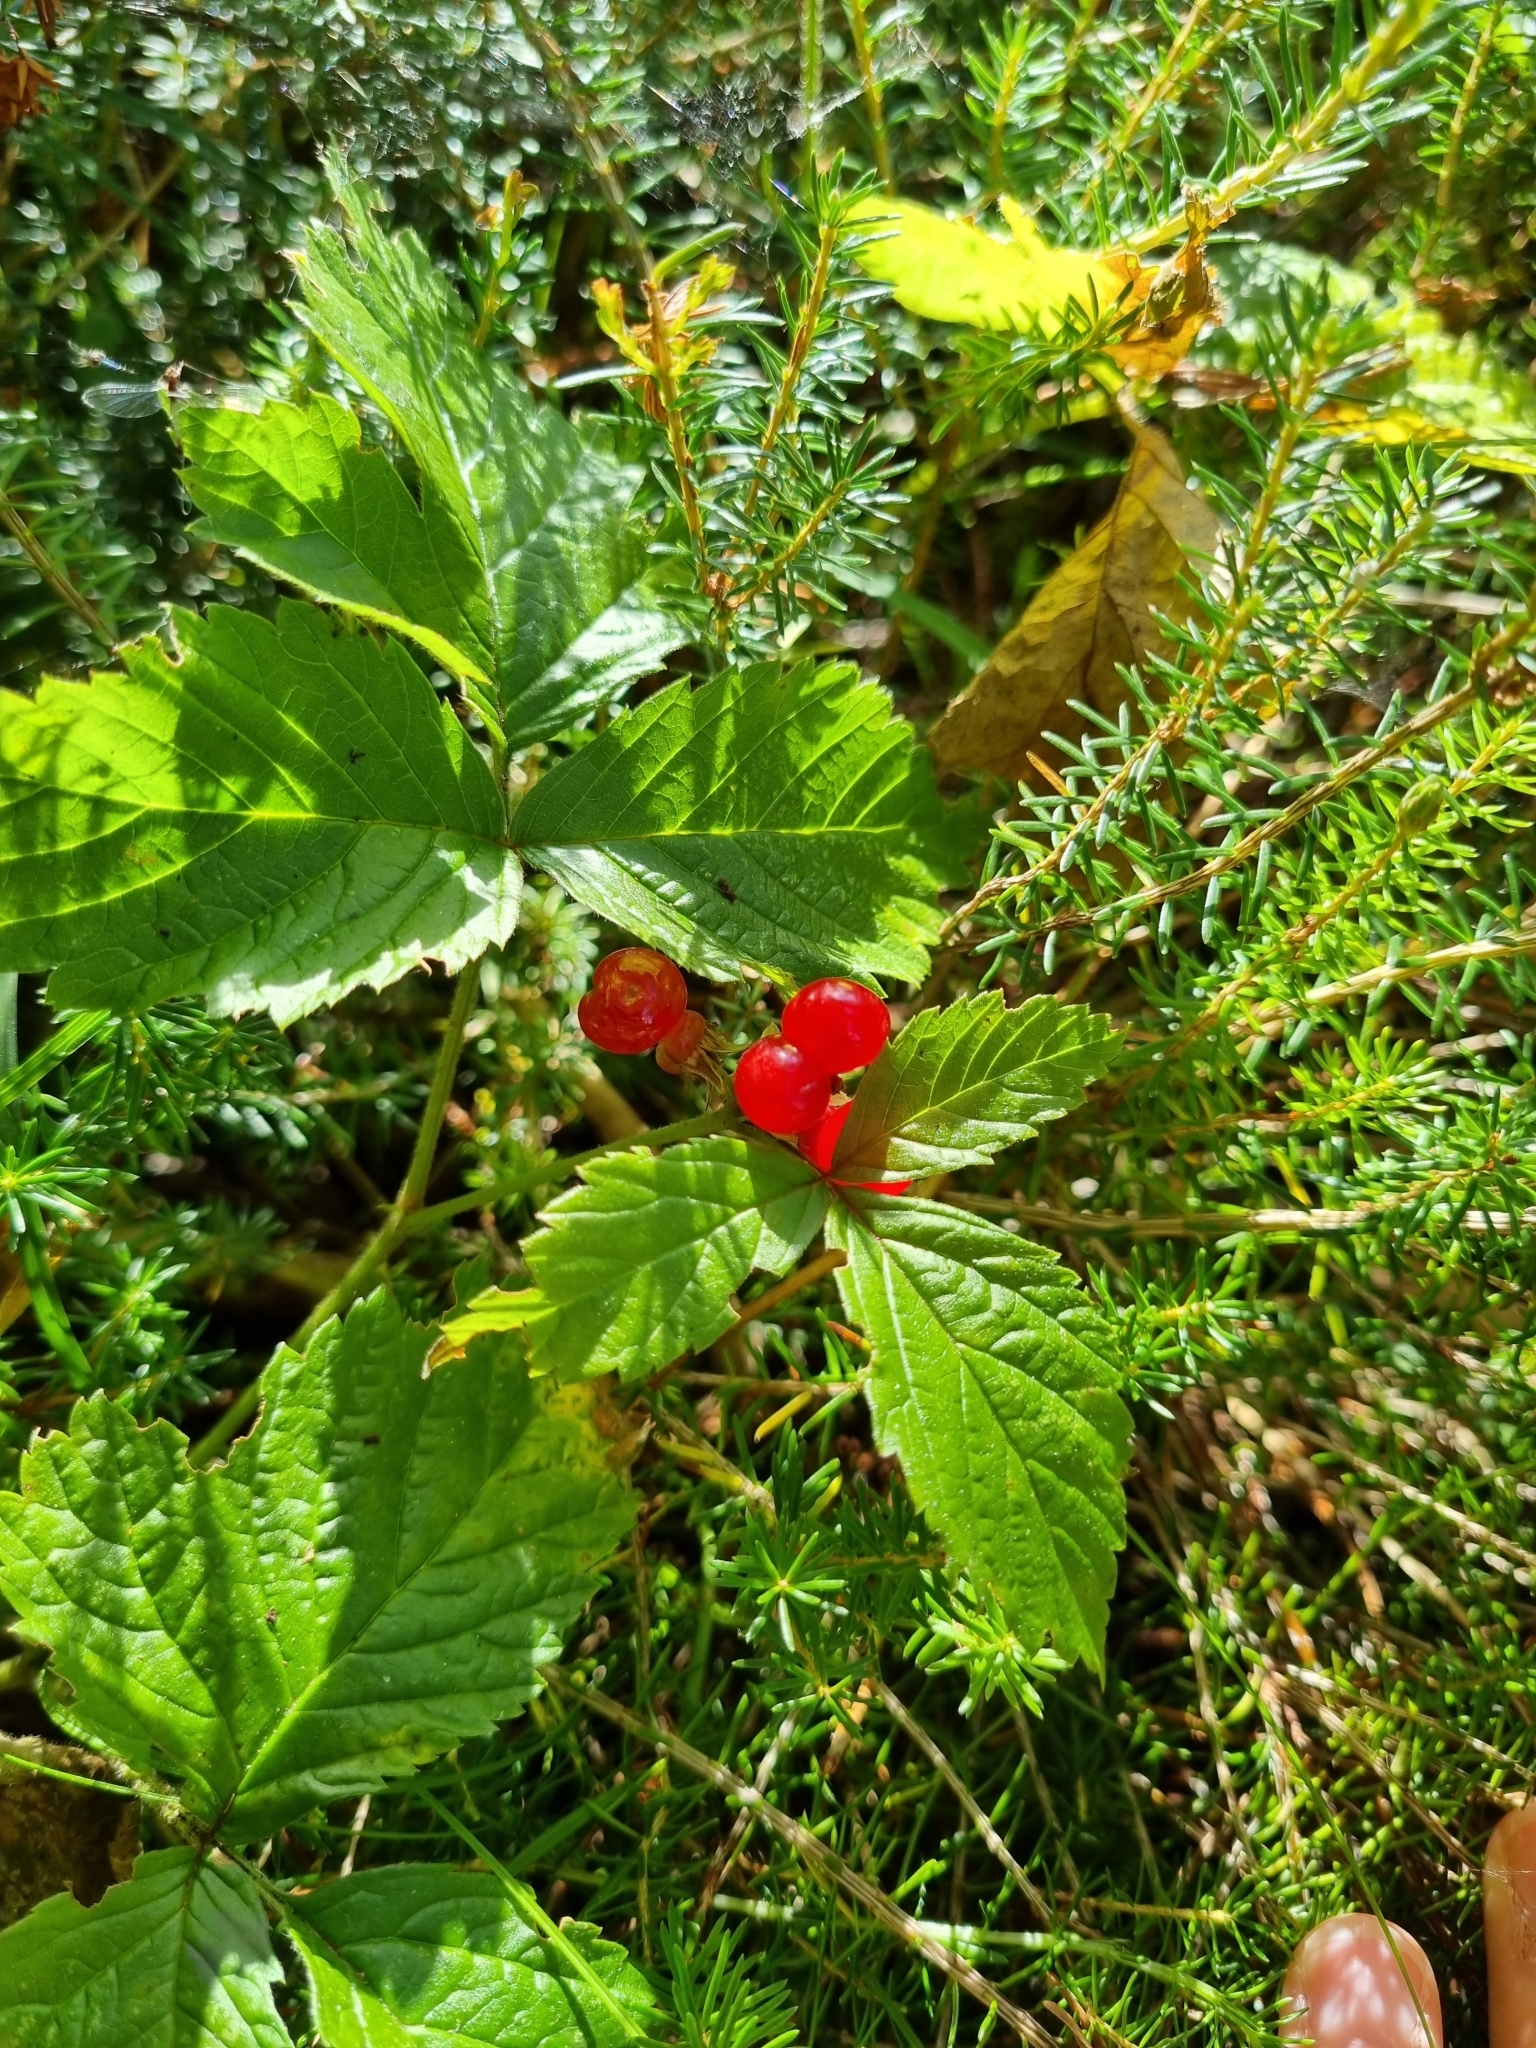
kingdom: Plantae
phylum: Tracheophyta
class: Magnoliopsida
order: Rosales
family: Rosaceae
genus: Rubus
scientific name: Rubus saxatilis
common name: Stone bramble
